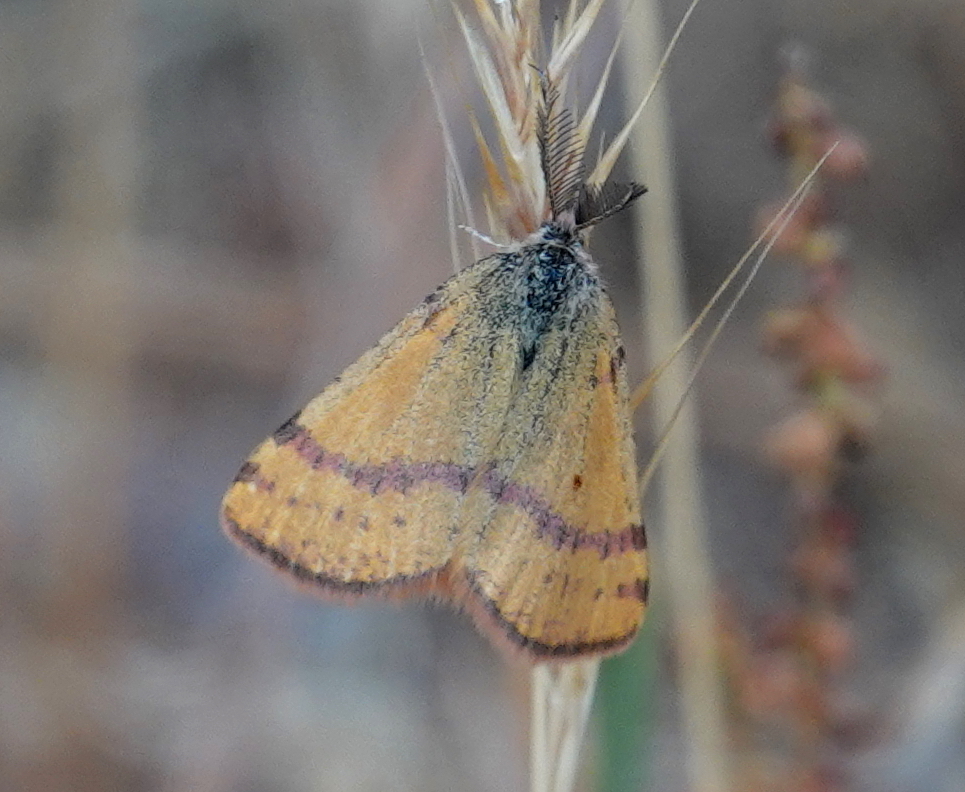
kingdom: Animalia
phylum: Arthropoda
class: Insecta
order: Lepidoptera
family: Geometridae
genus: Lythria
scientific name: Lythria cruentaria
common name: Purple-barred yellow
